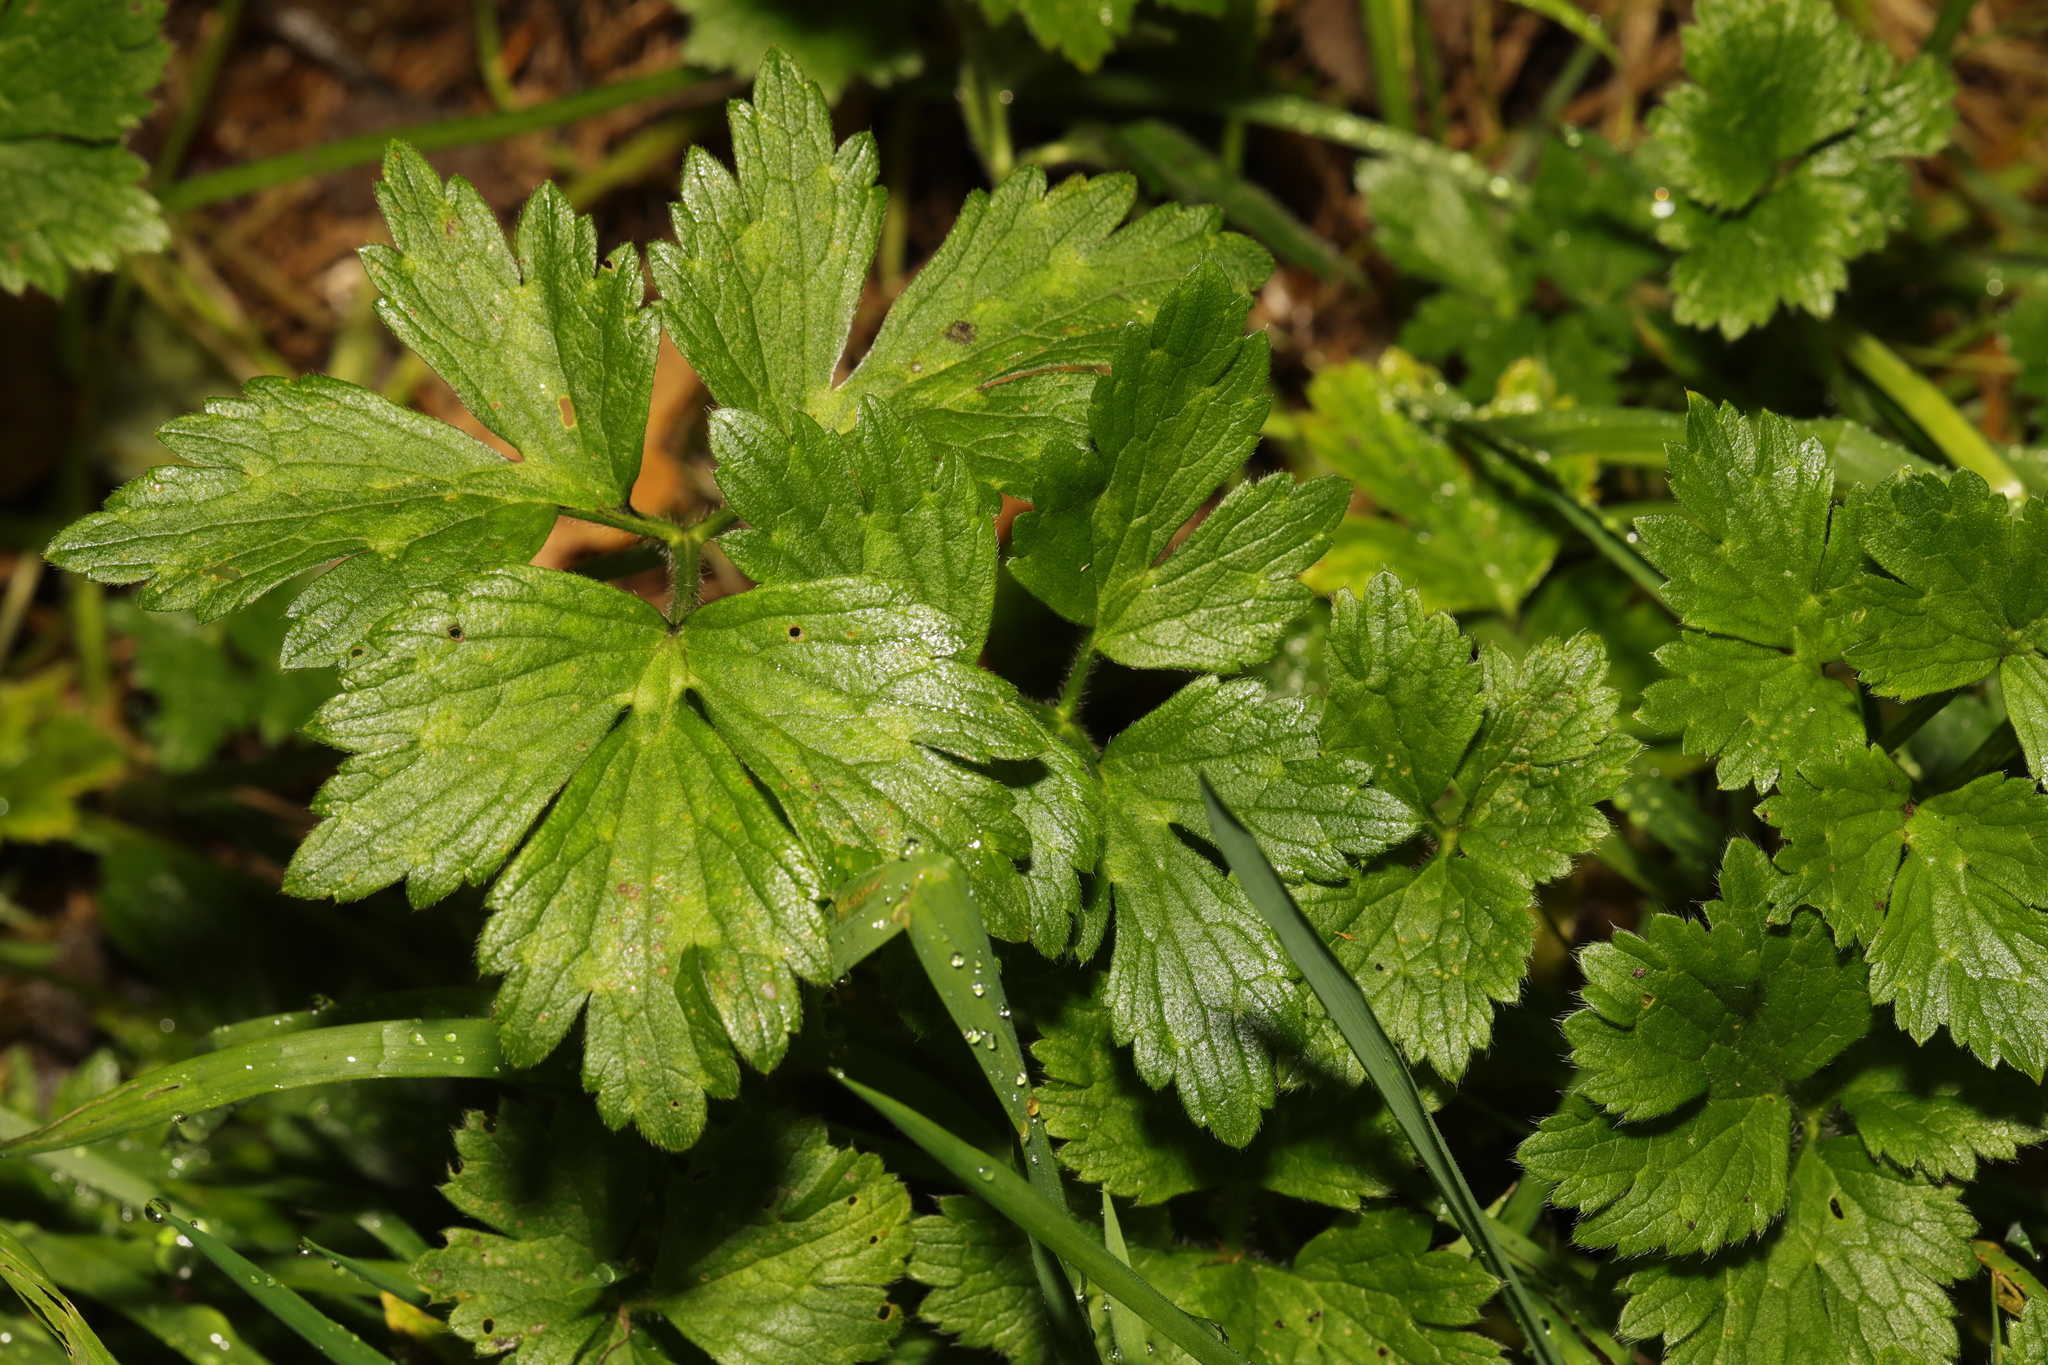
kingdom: Plantae
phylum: Tracheophyta
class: Magnoliopsida
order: Ranunculales
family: Ranunculaceae
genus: Ranunculus
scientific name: Ranunculus repens
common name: Creeping buttercup
